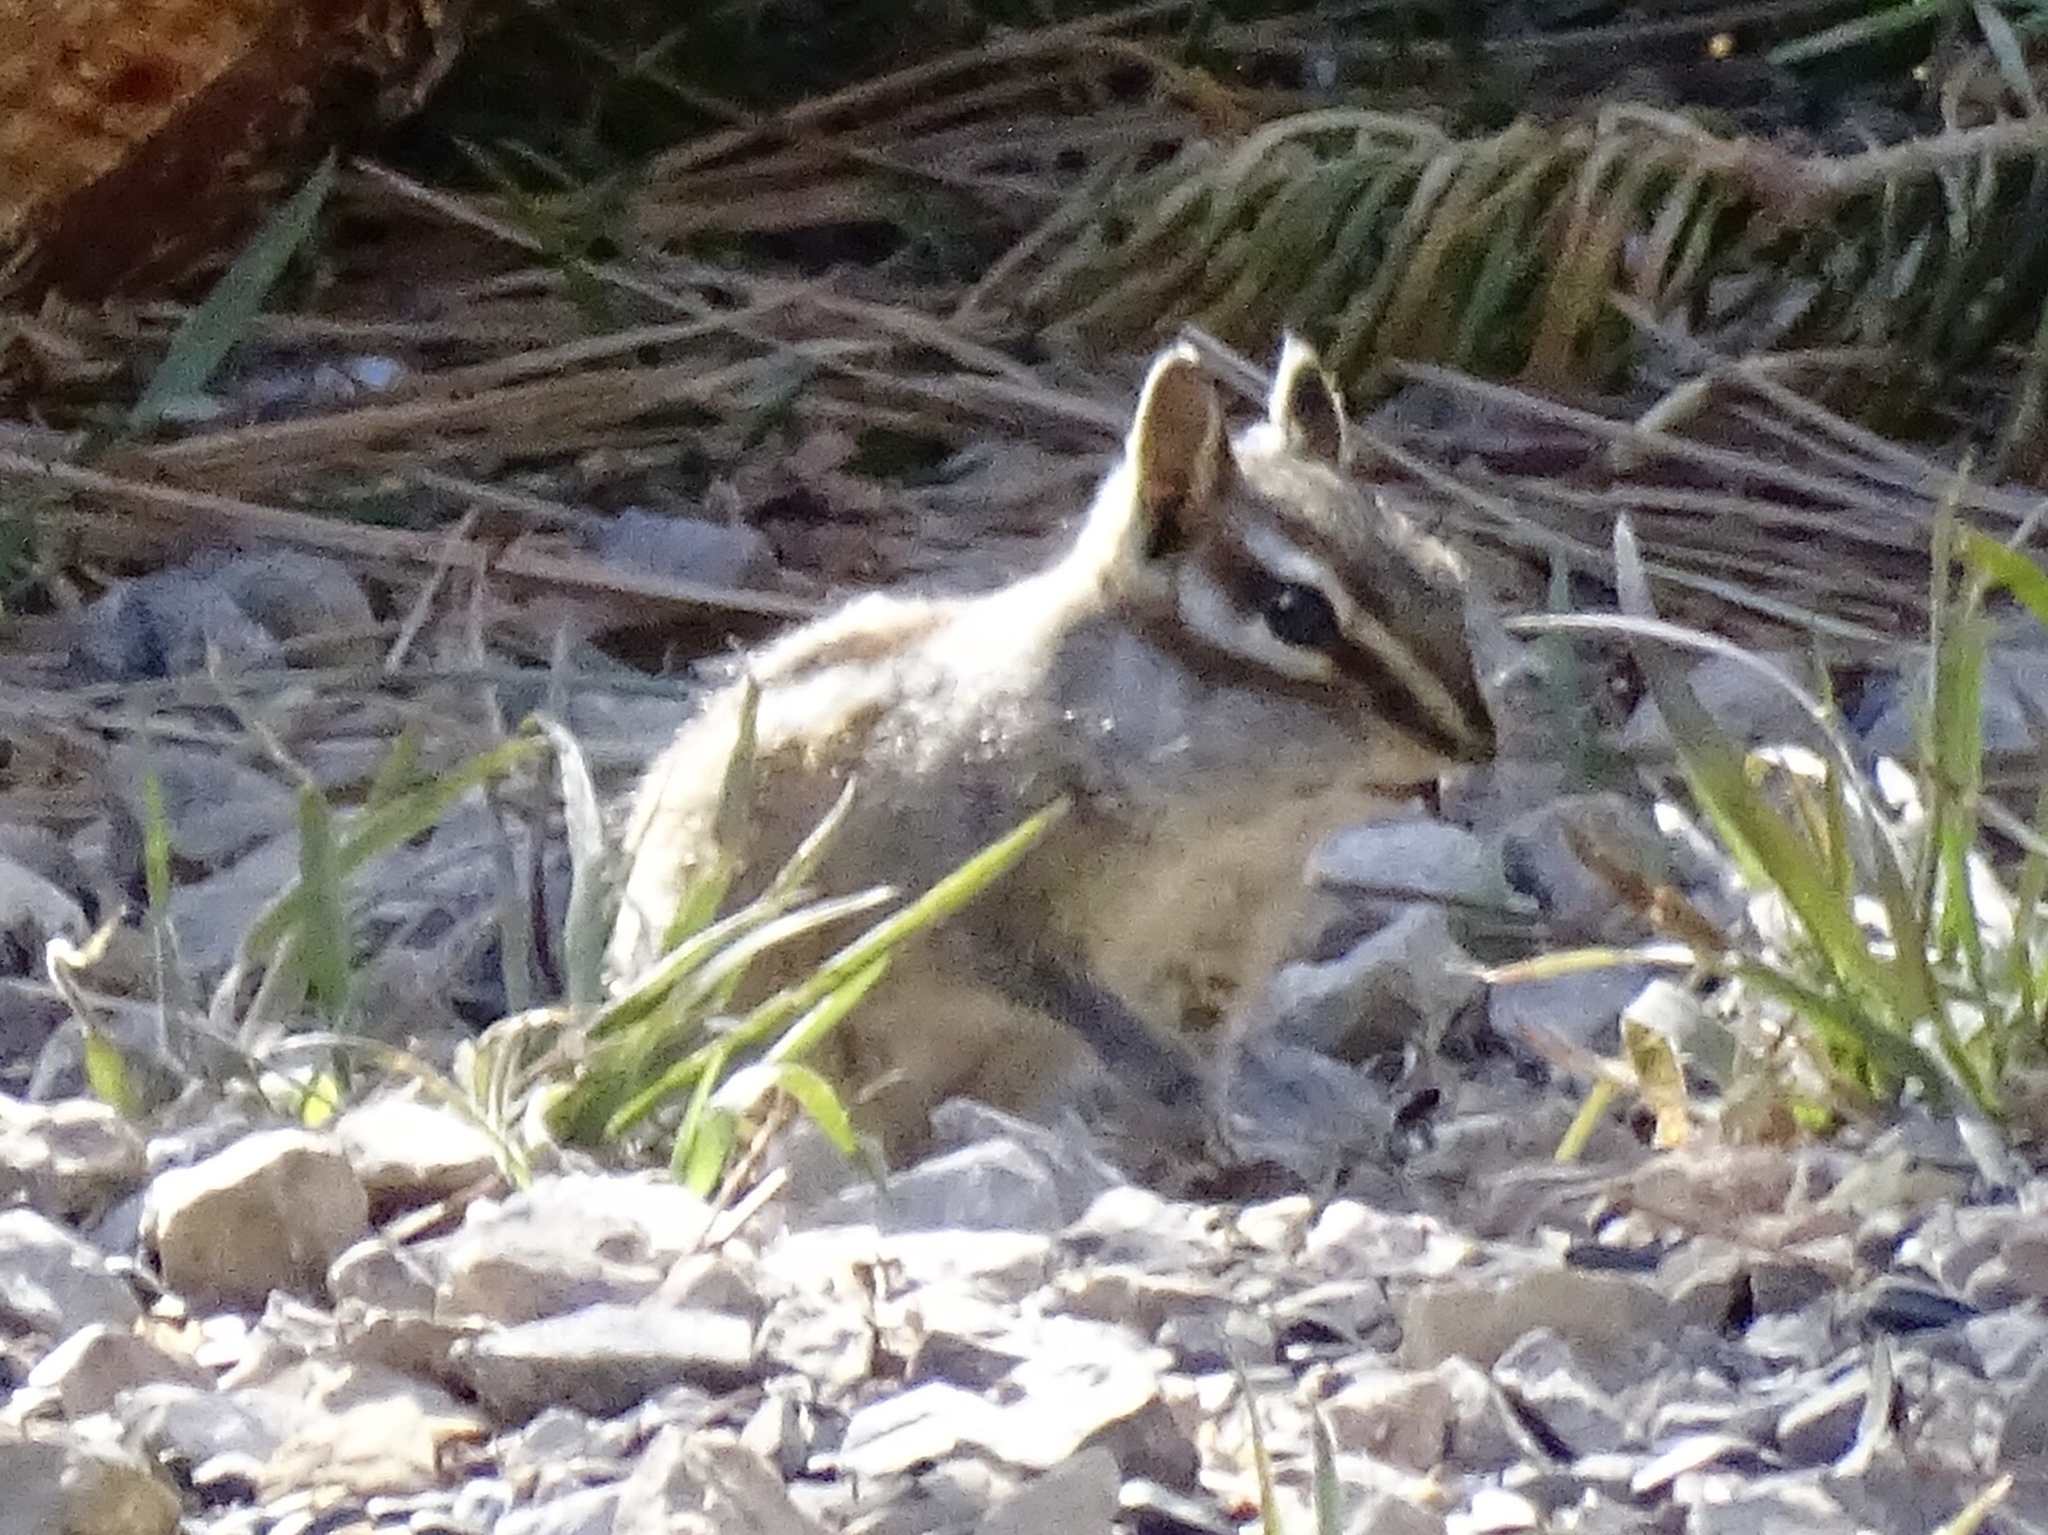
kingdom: Animalia
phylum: Chordata
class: Mammalia
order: Rodentia
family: Sciuridae
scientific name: Sciuridae
